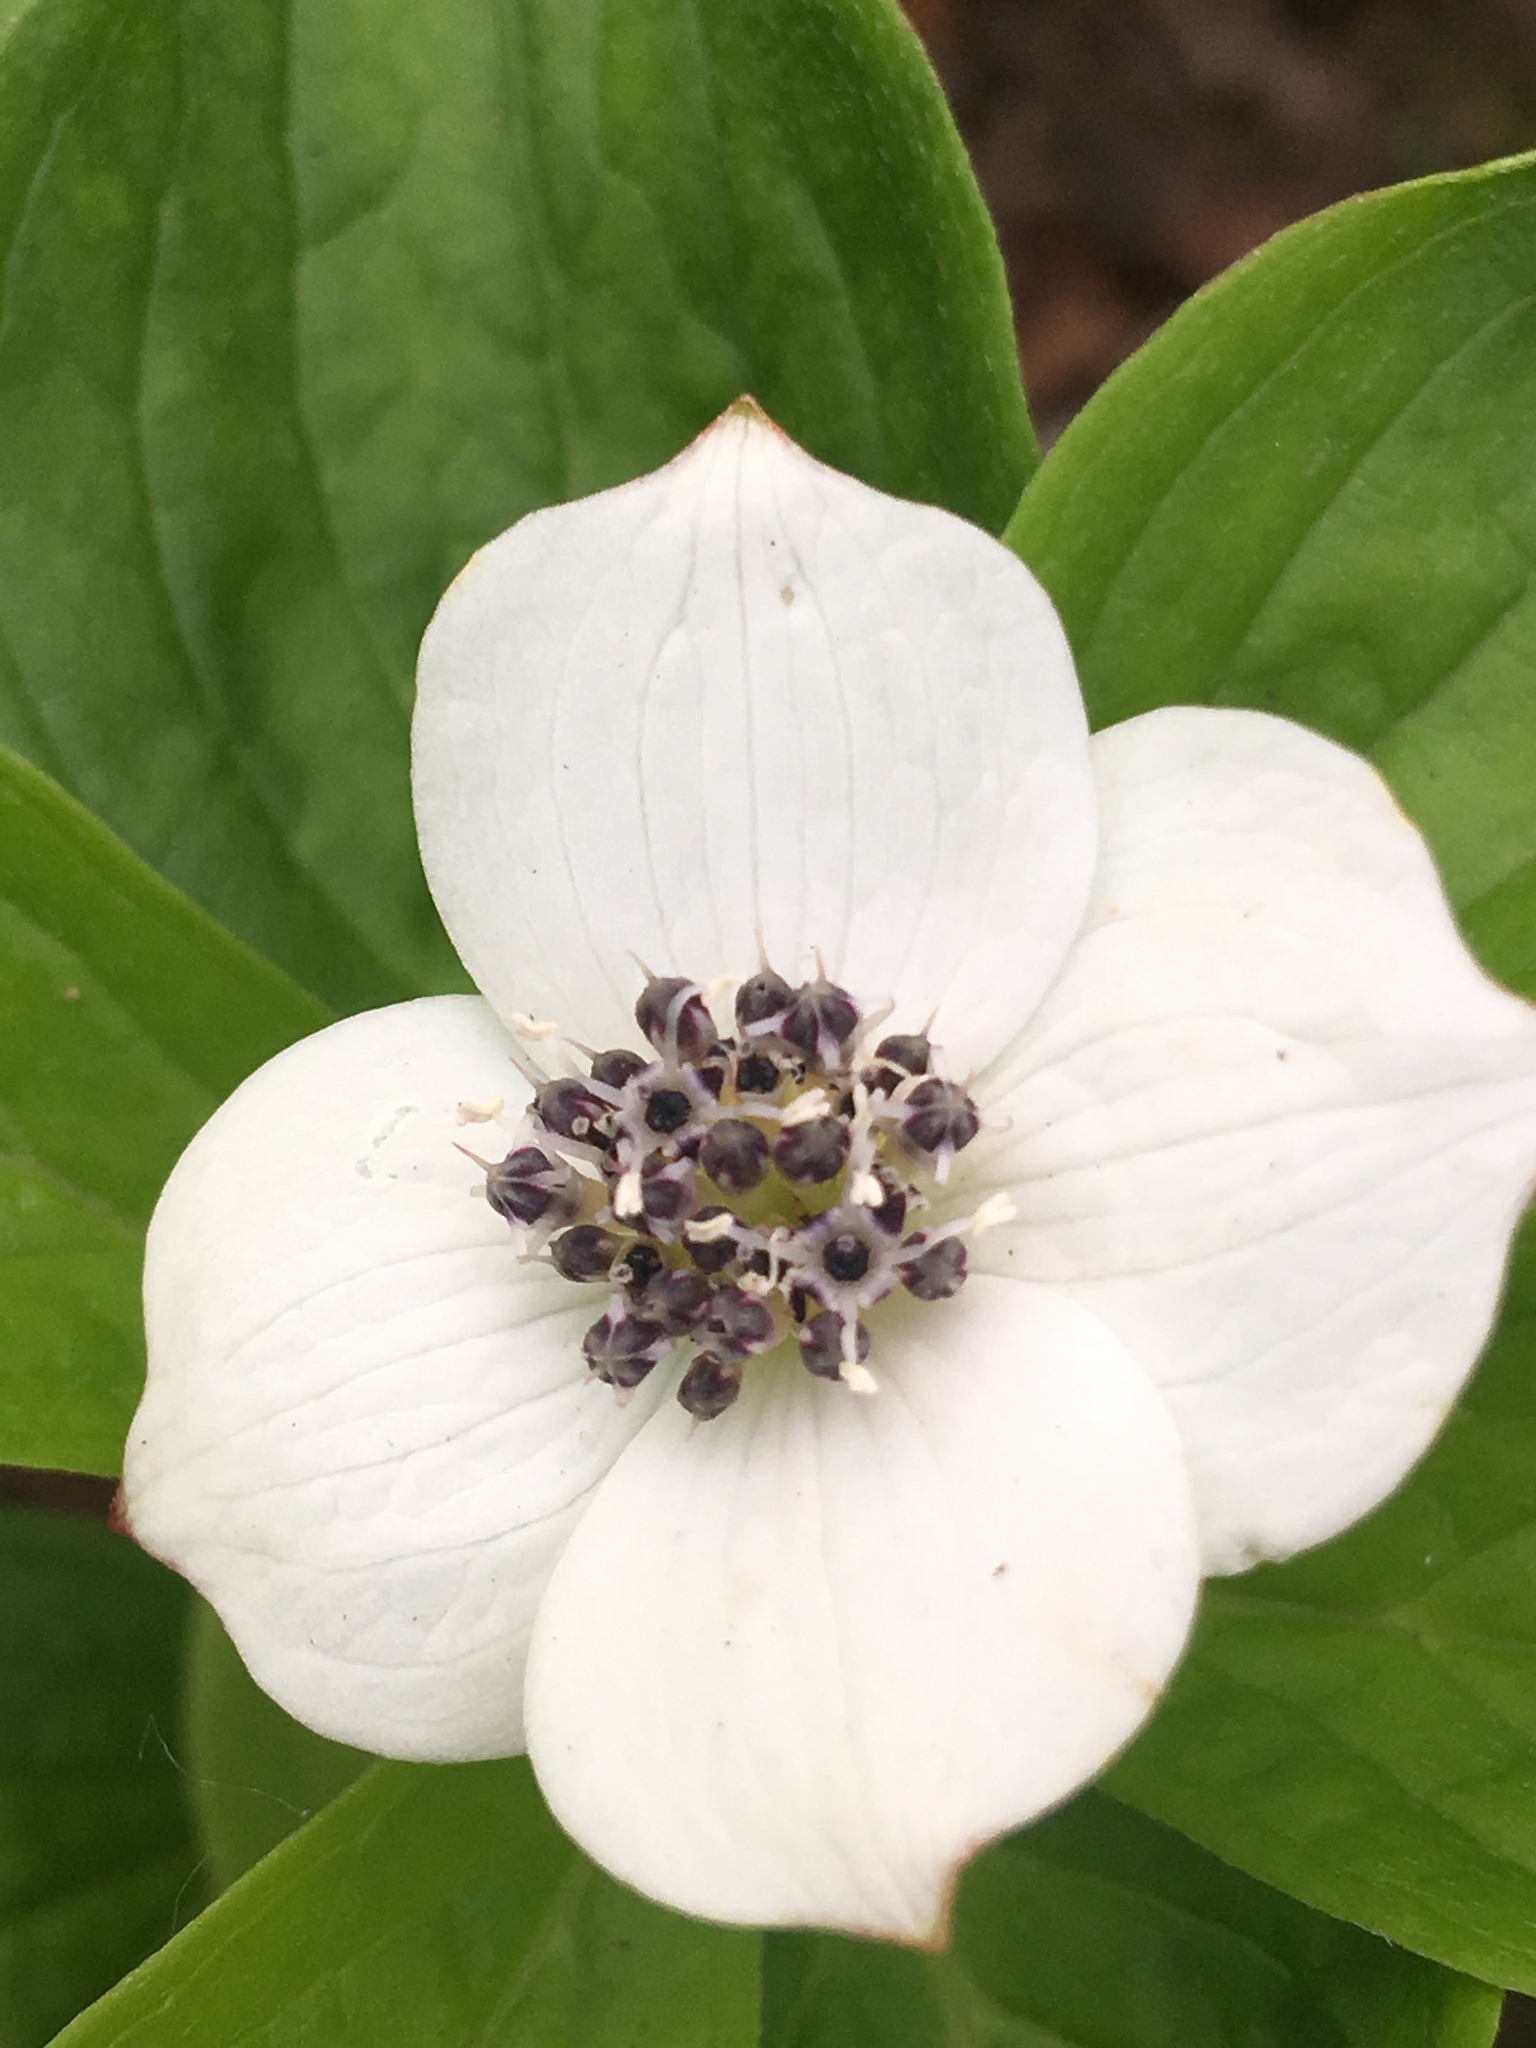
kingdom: Plantae
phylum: Tracheophyta
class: Magnoliopsida
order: Cornales
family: Cornaceae
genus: Cornus
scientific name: Cornus unalaschkensis
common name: Alaska bunchberry
